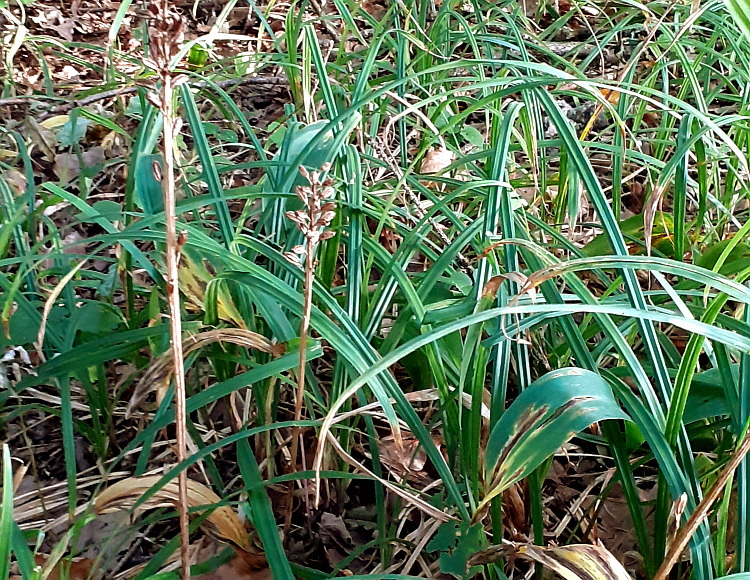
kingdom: Plantae
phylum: Tracheophyta
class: Liliopsida
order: Asparagales
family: Orchidaceae
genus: Neottia
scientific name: Neottia nidus-avis
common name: Bird's-nest orchid
